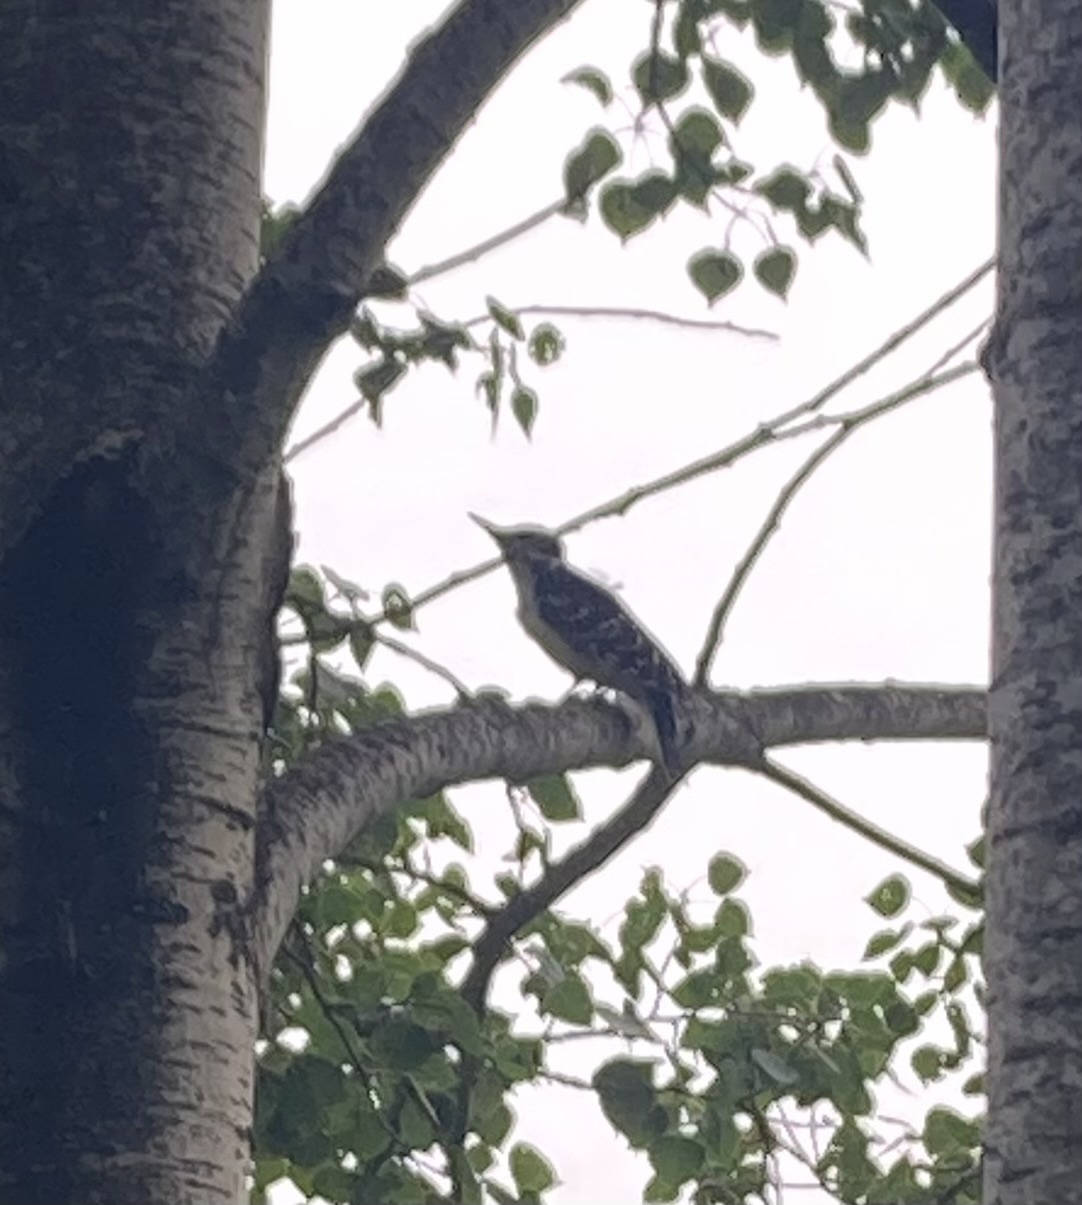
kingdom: Animalia
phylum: Chordata
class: Aves
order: Piciformes
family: Picidae
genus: Leuconotopicus
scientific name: Leuconotopicus villosus
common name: Hairy woodpecker
